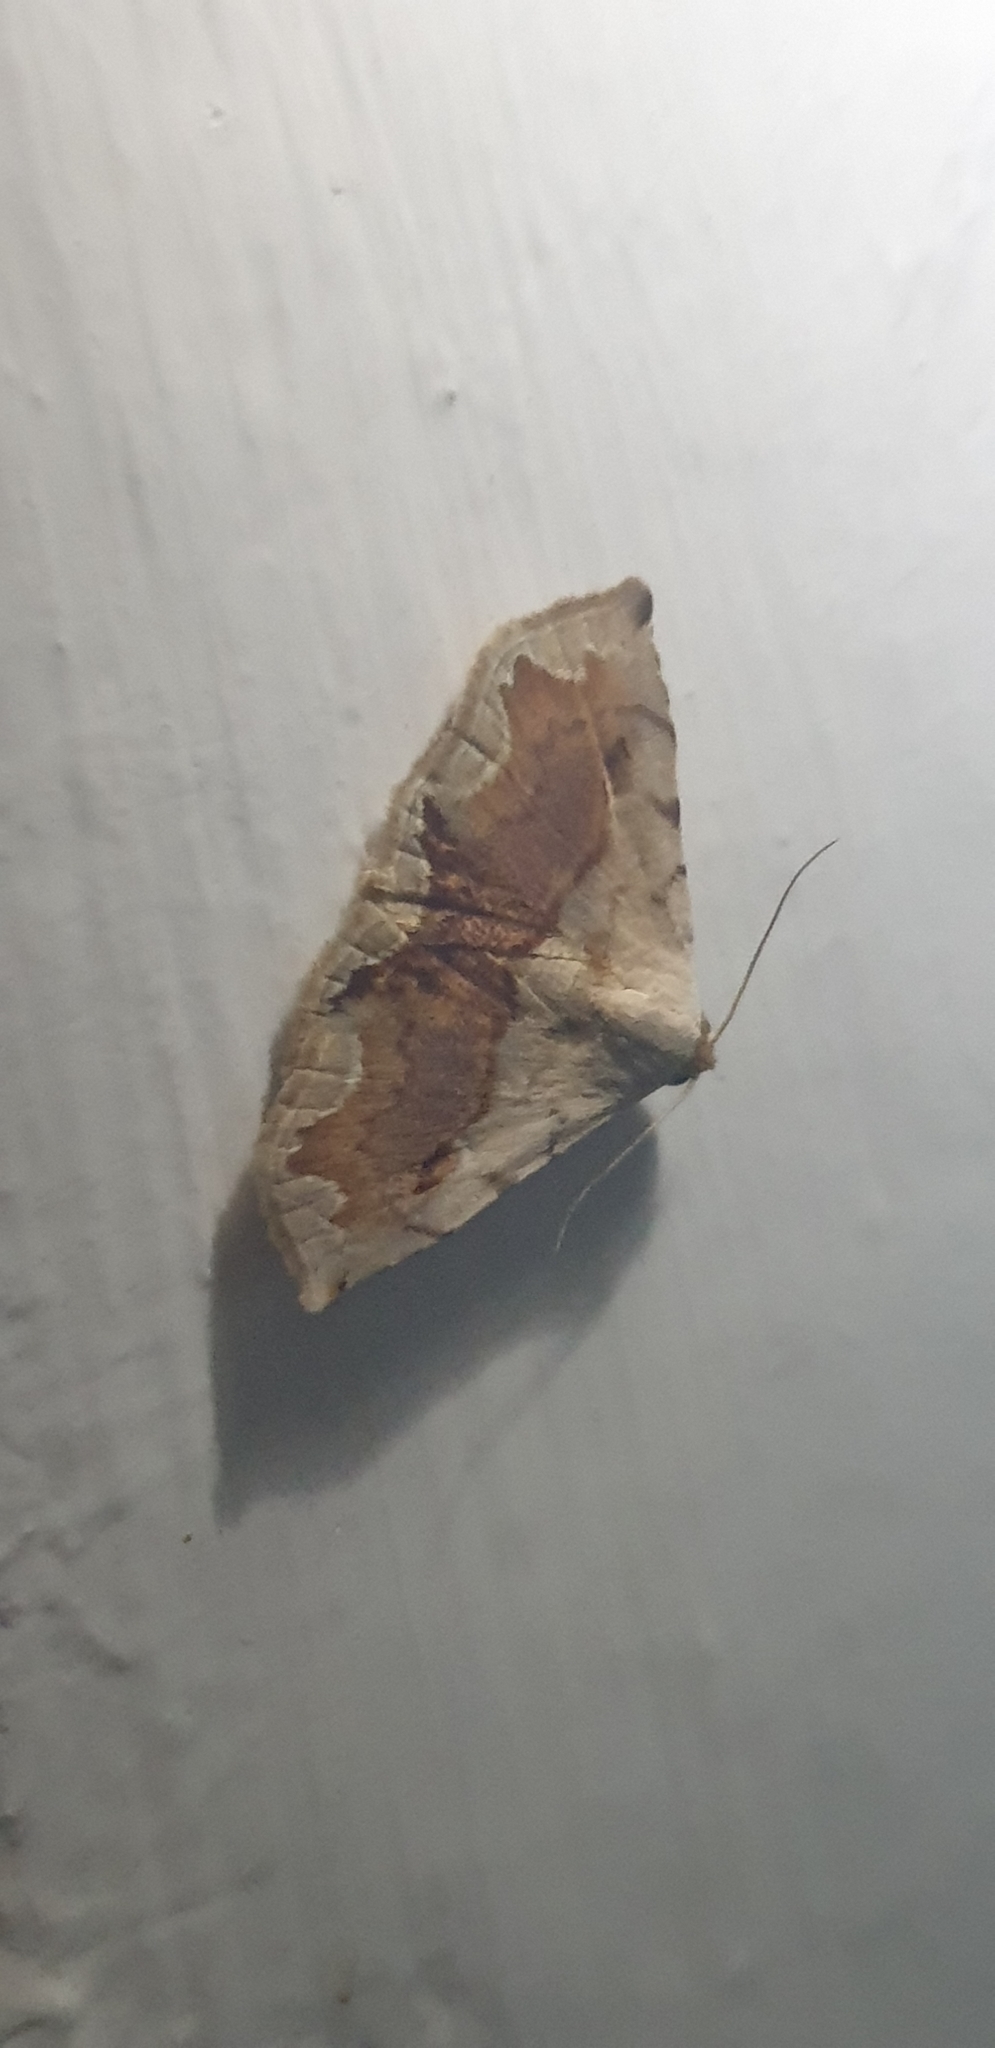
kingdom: Animalia
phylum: Arthropoda
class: Insecta
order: Lepidoptera
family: Noctuidae
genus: Eublemma
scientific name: Eublemma
